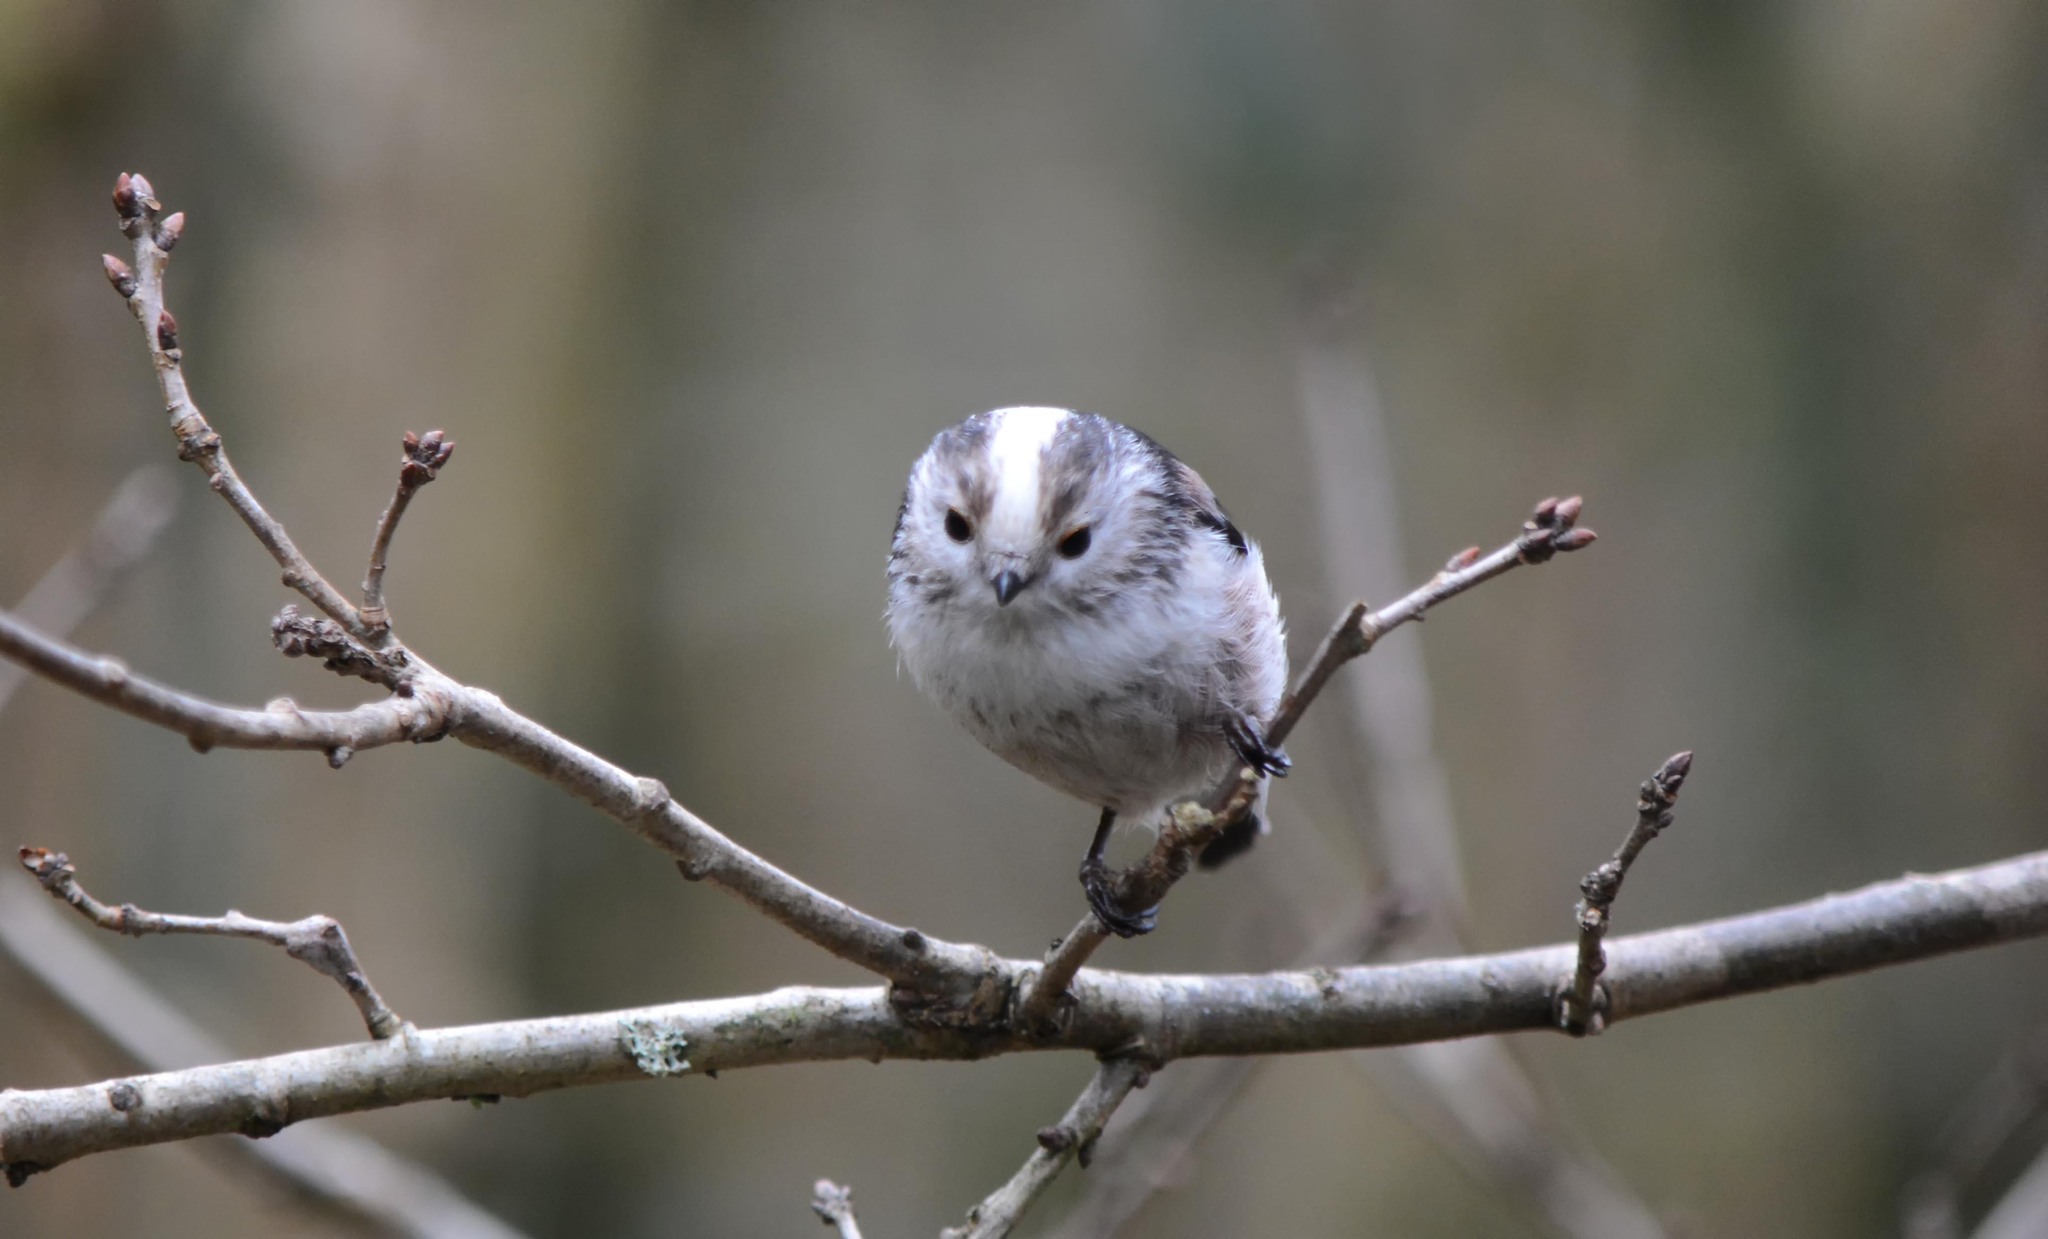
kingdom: Animalia
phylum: Chordata
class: Aves
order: Passeriformes
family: Aegithalidae
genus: Aegithalos
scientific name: Aegithalos caudatus
